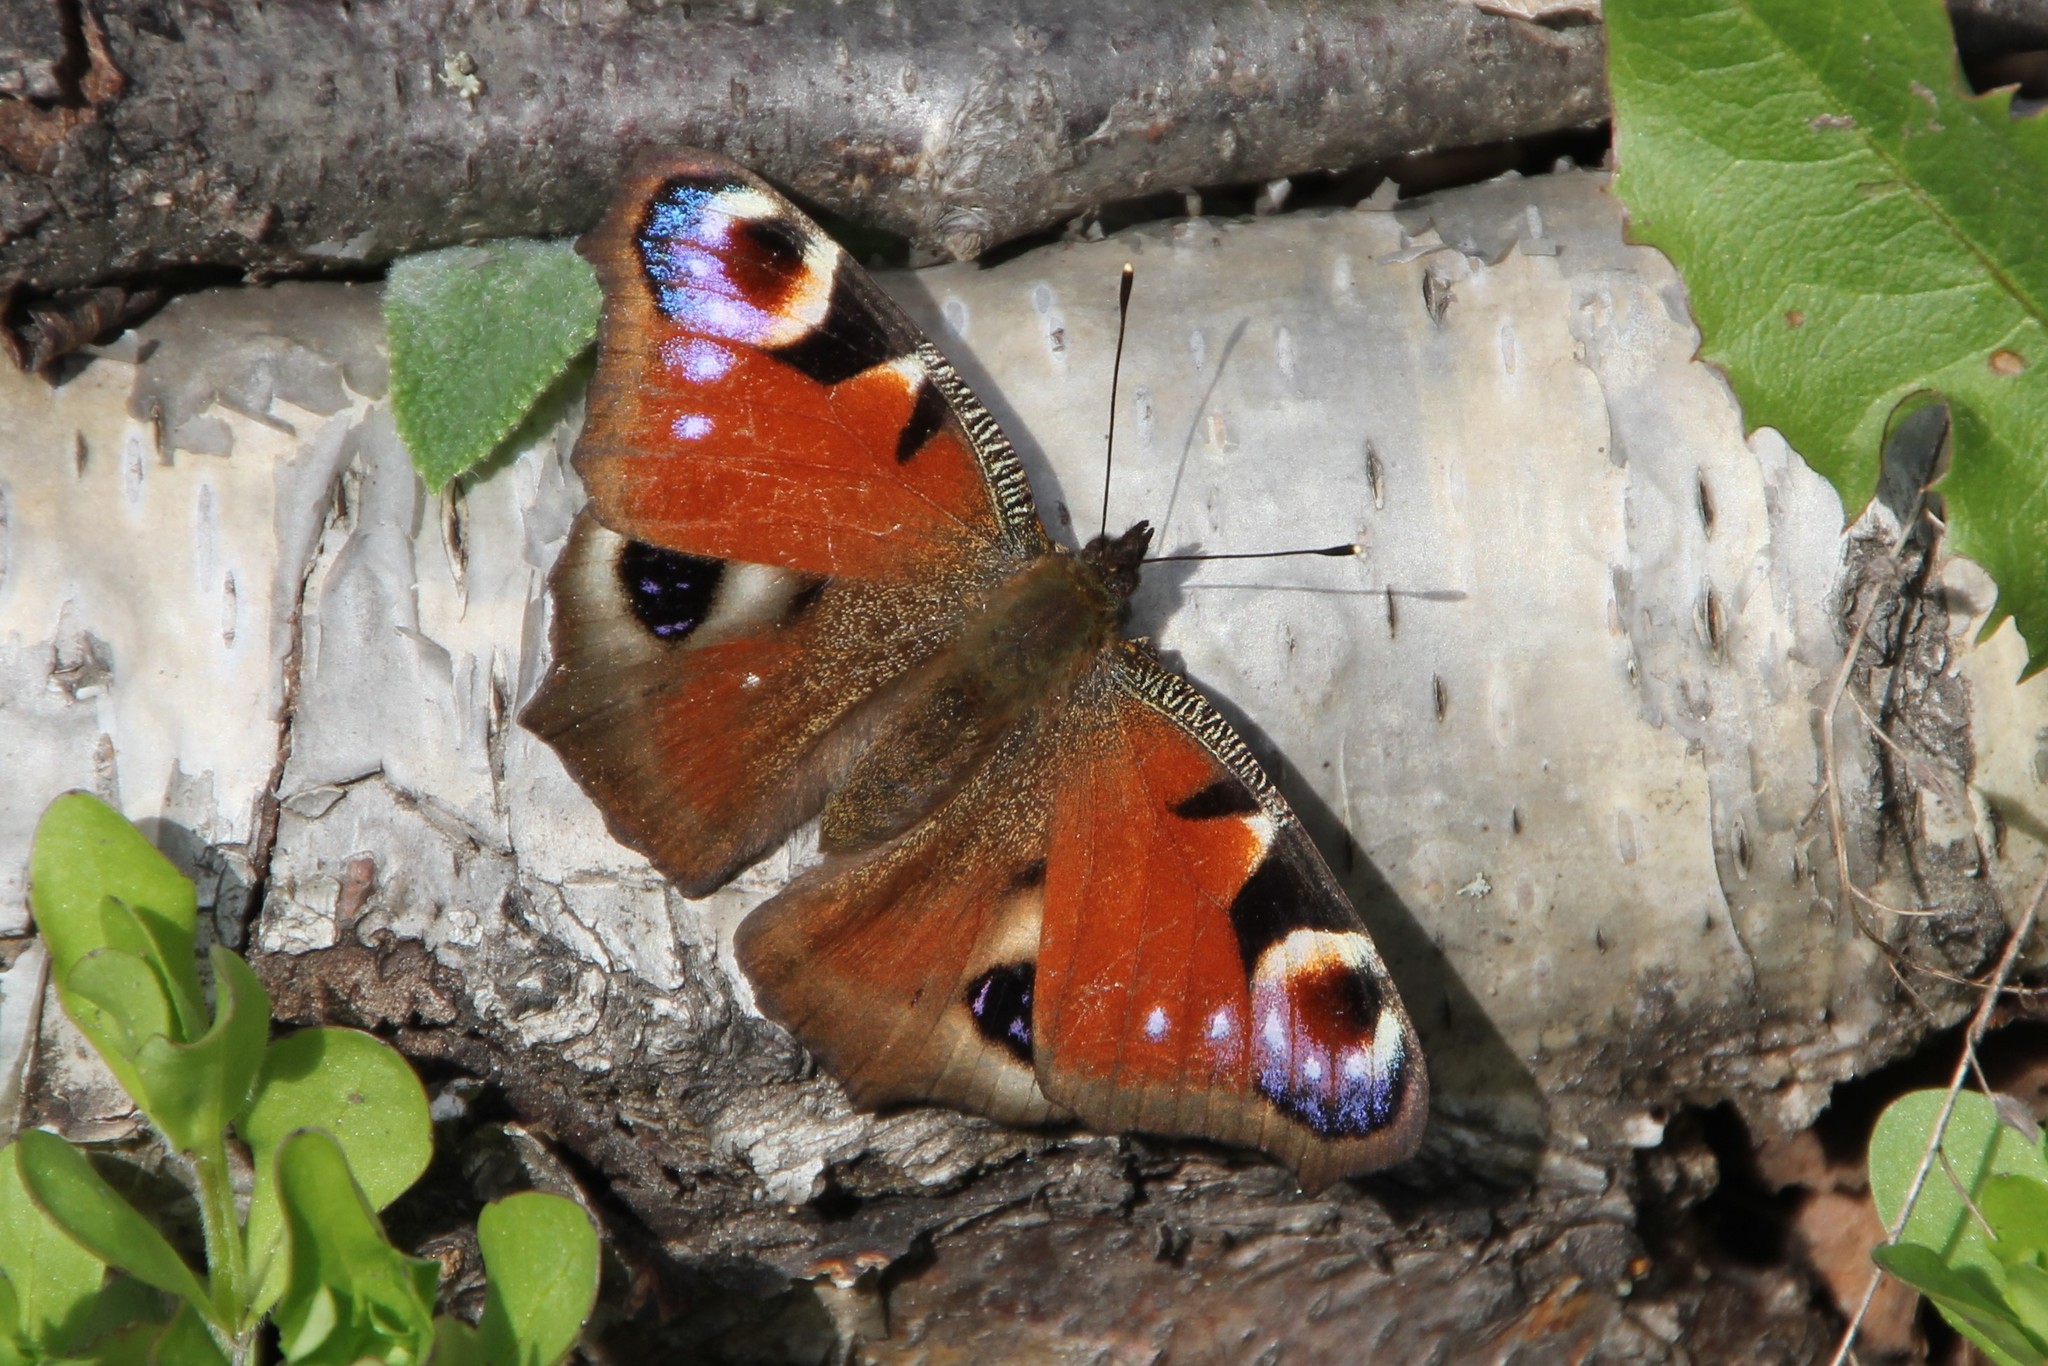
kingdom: Animalia
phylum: Arthropoda
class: Insecta
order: Lepidoptera
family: Nymphalidae
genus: Aglais
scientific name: Aglais io
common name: Peacock
